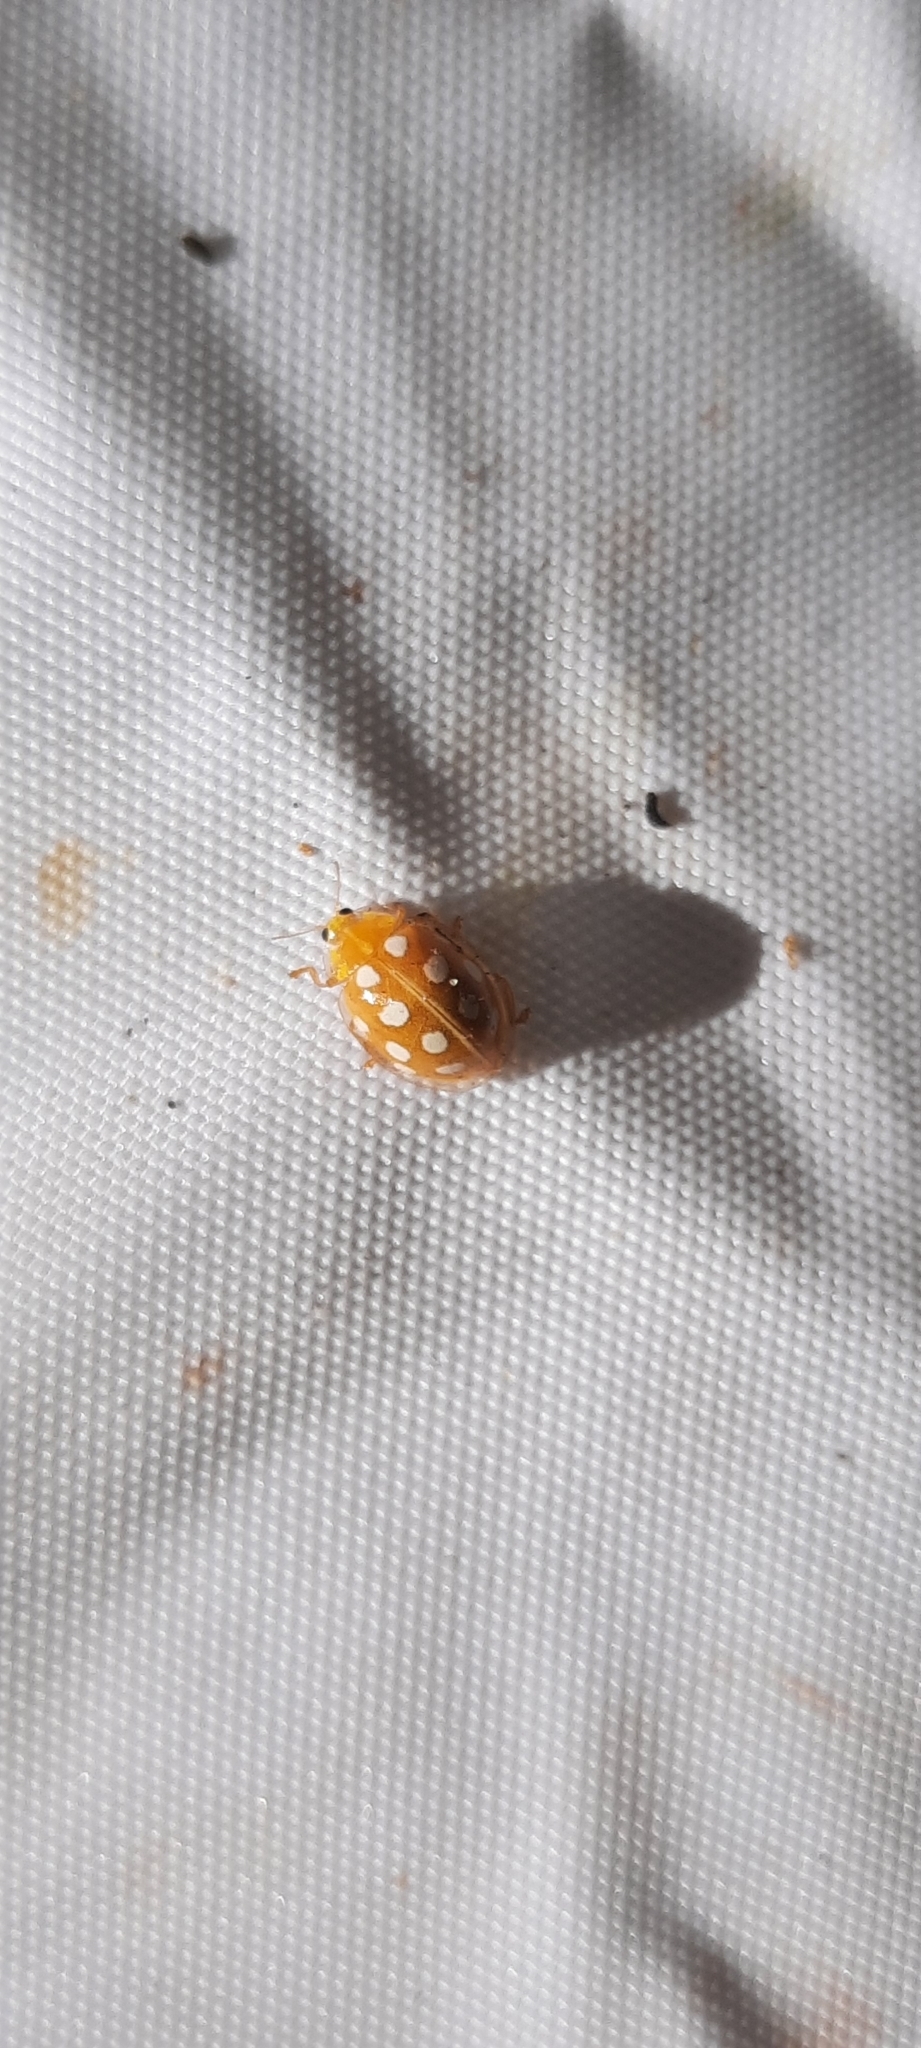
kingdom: Animalia
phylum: Arthropoda
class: Insecta
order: Coleoptera
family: Coccinellidae
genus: Halyzia
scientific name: Halyzia sedecimguttata
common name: Orange ladybird
